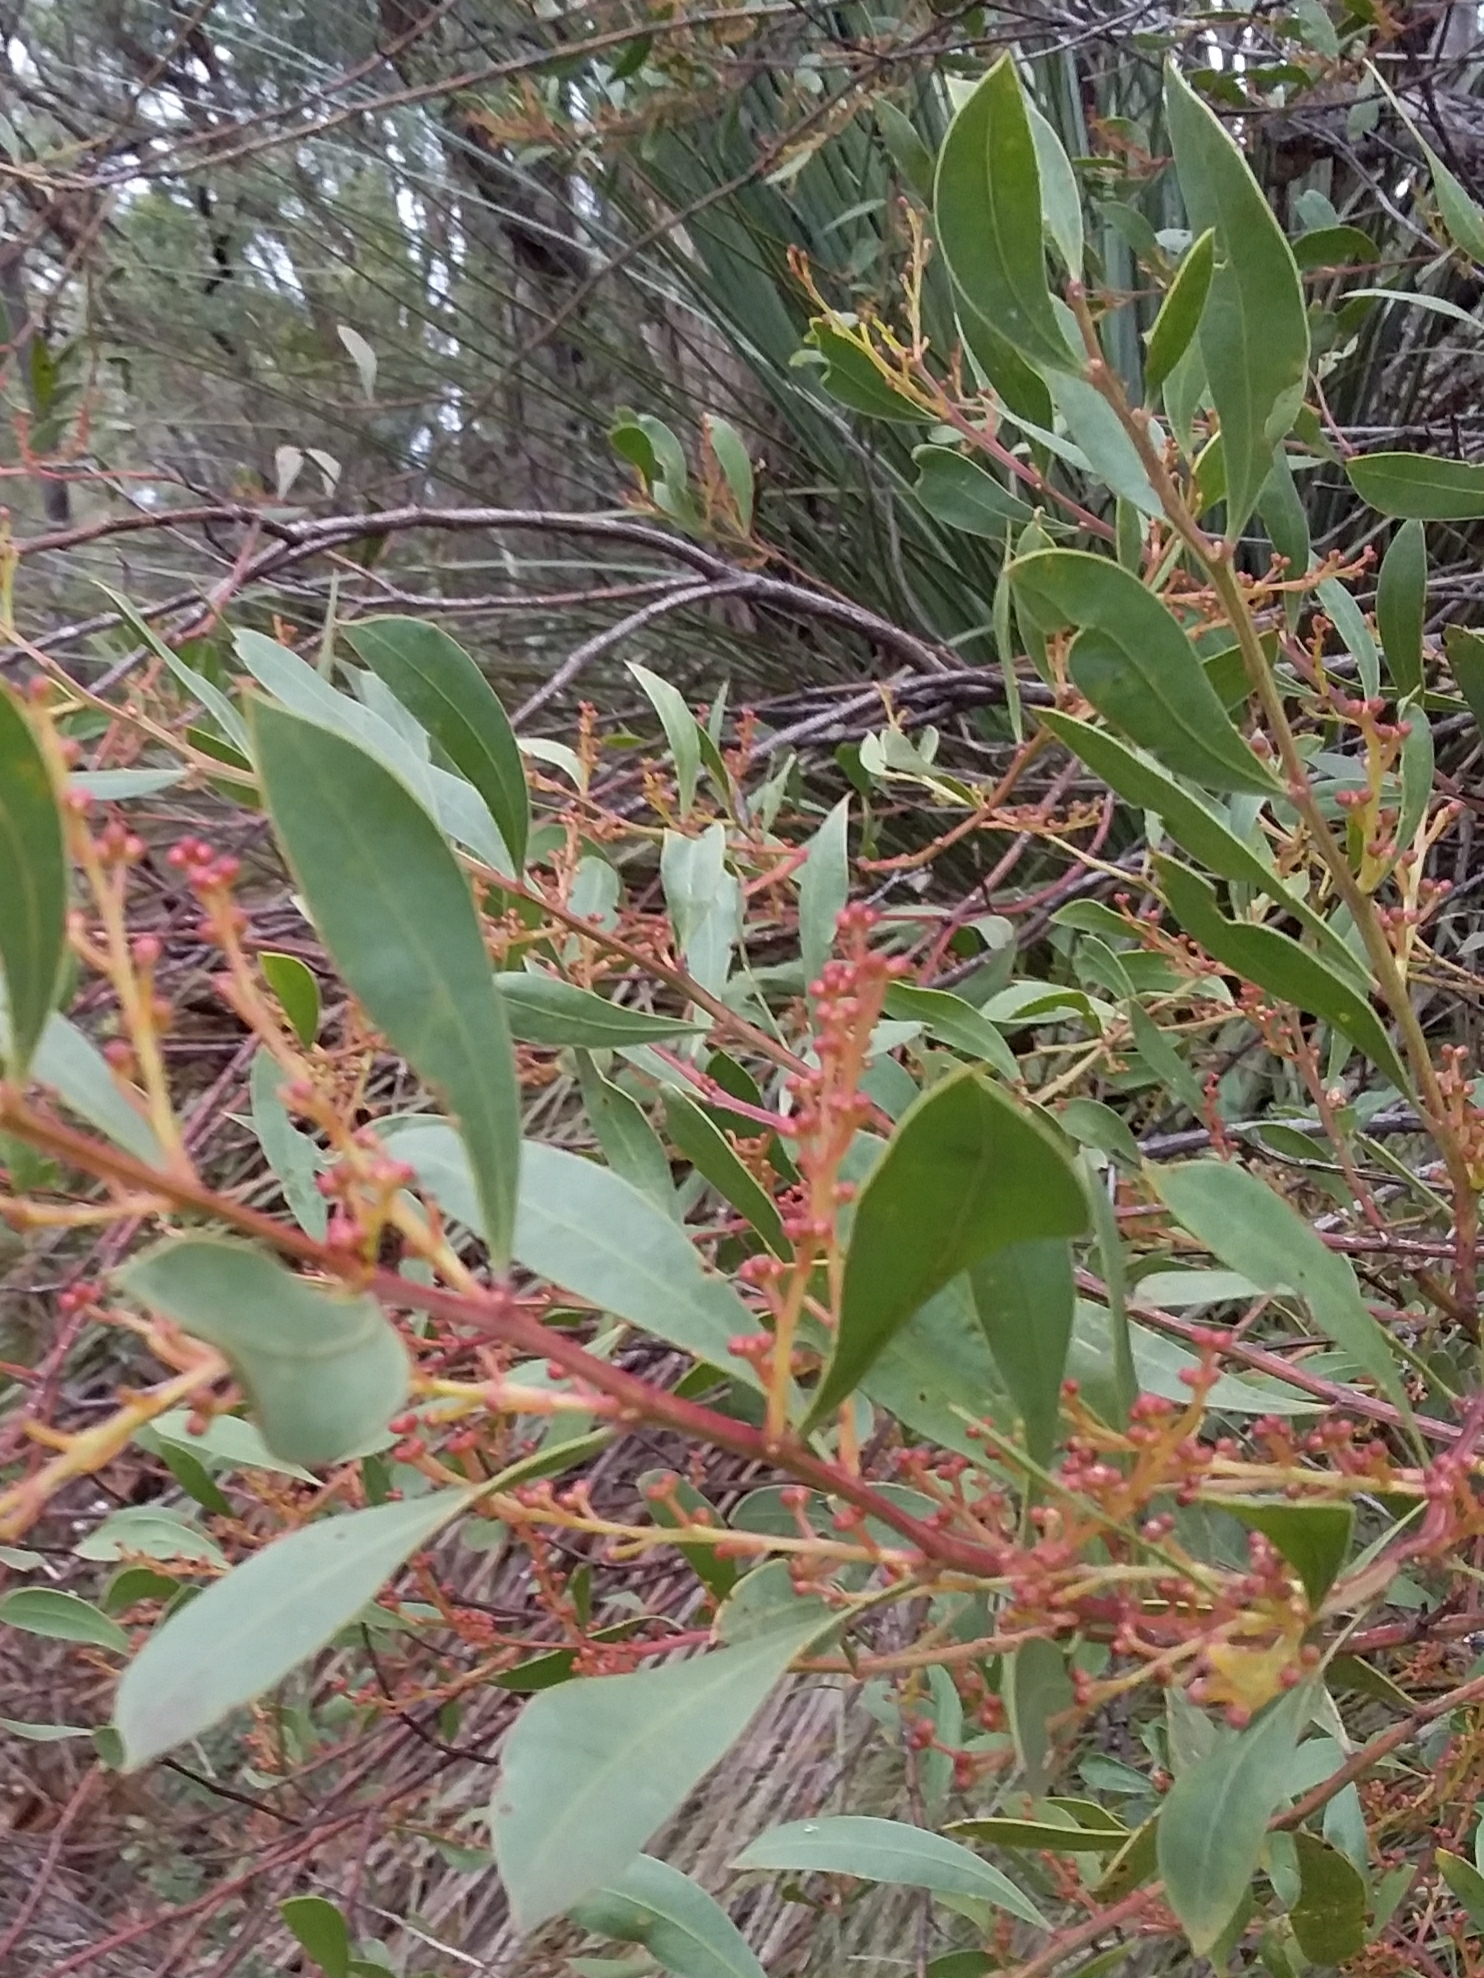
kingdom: Plantae
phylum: Tracheophyta
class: Magnoliopsida
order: Fabales
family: Fabaceae
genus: Acacia
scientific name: Acacia myrtifolia
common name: Myrtle wattle
